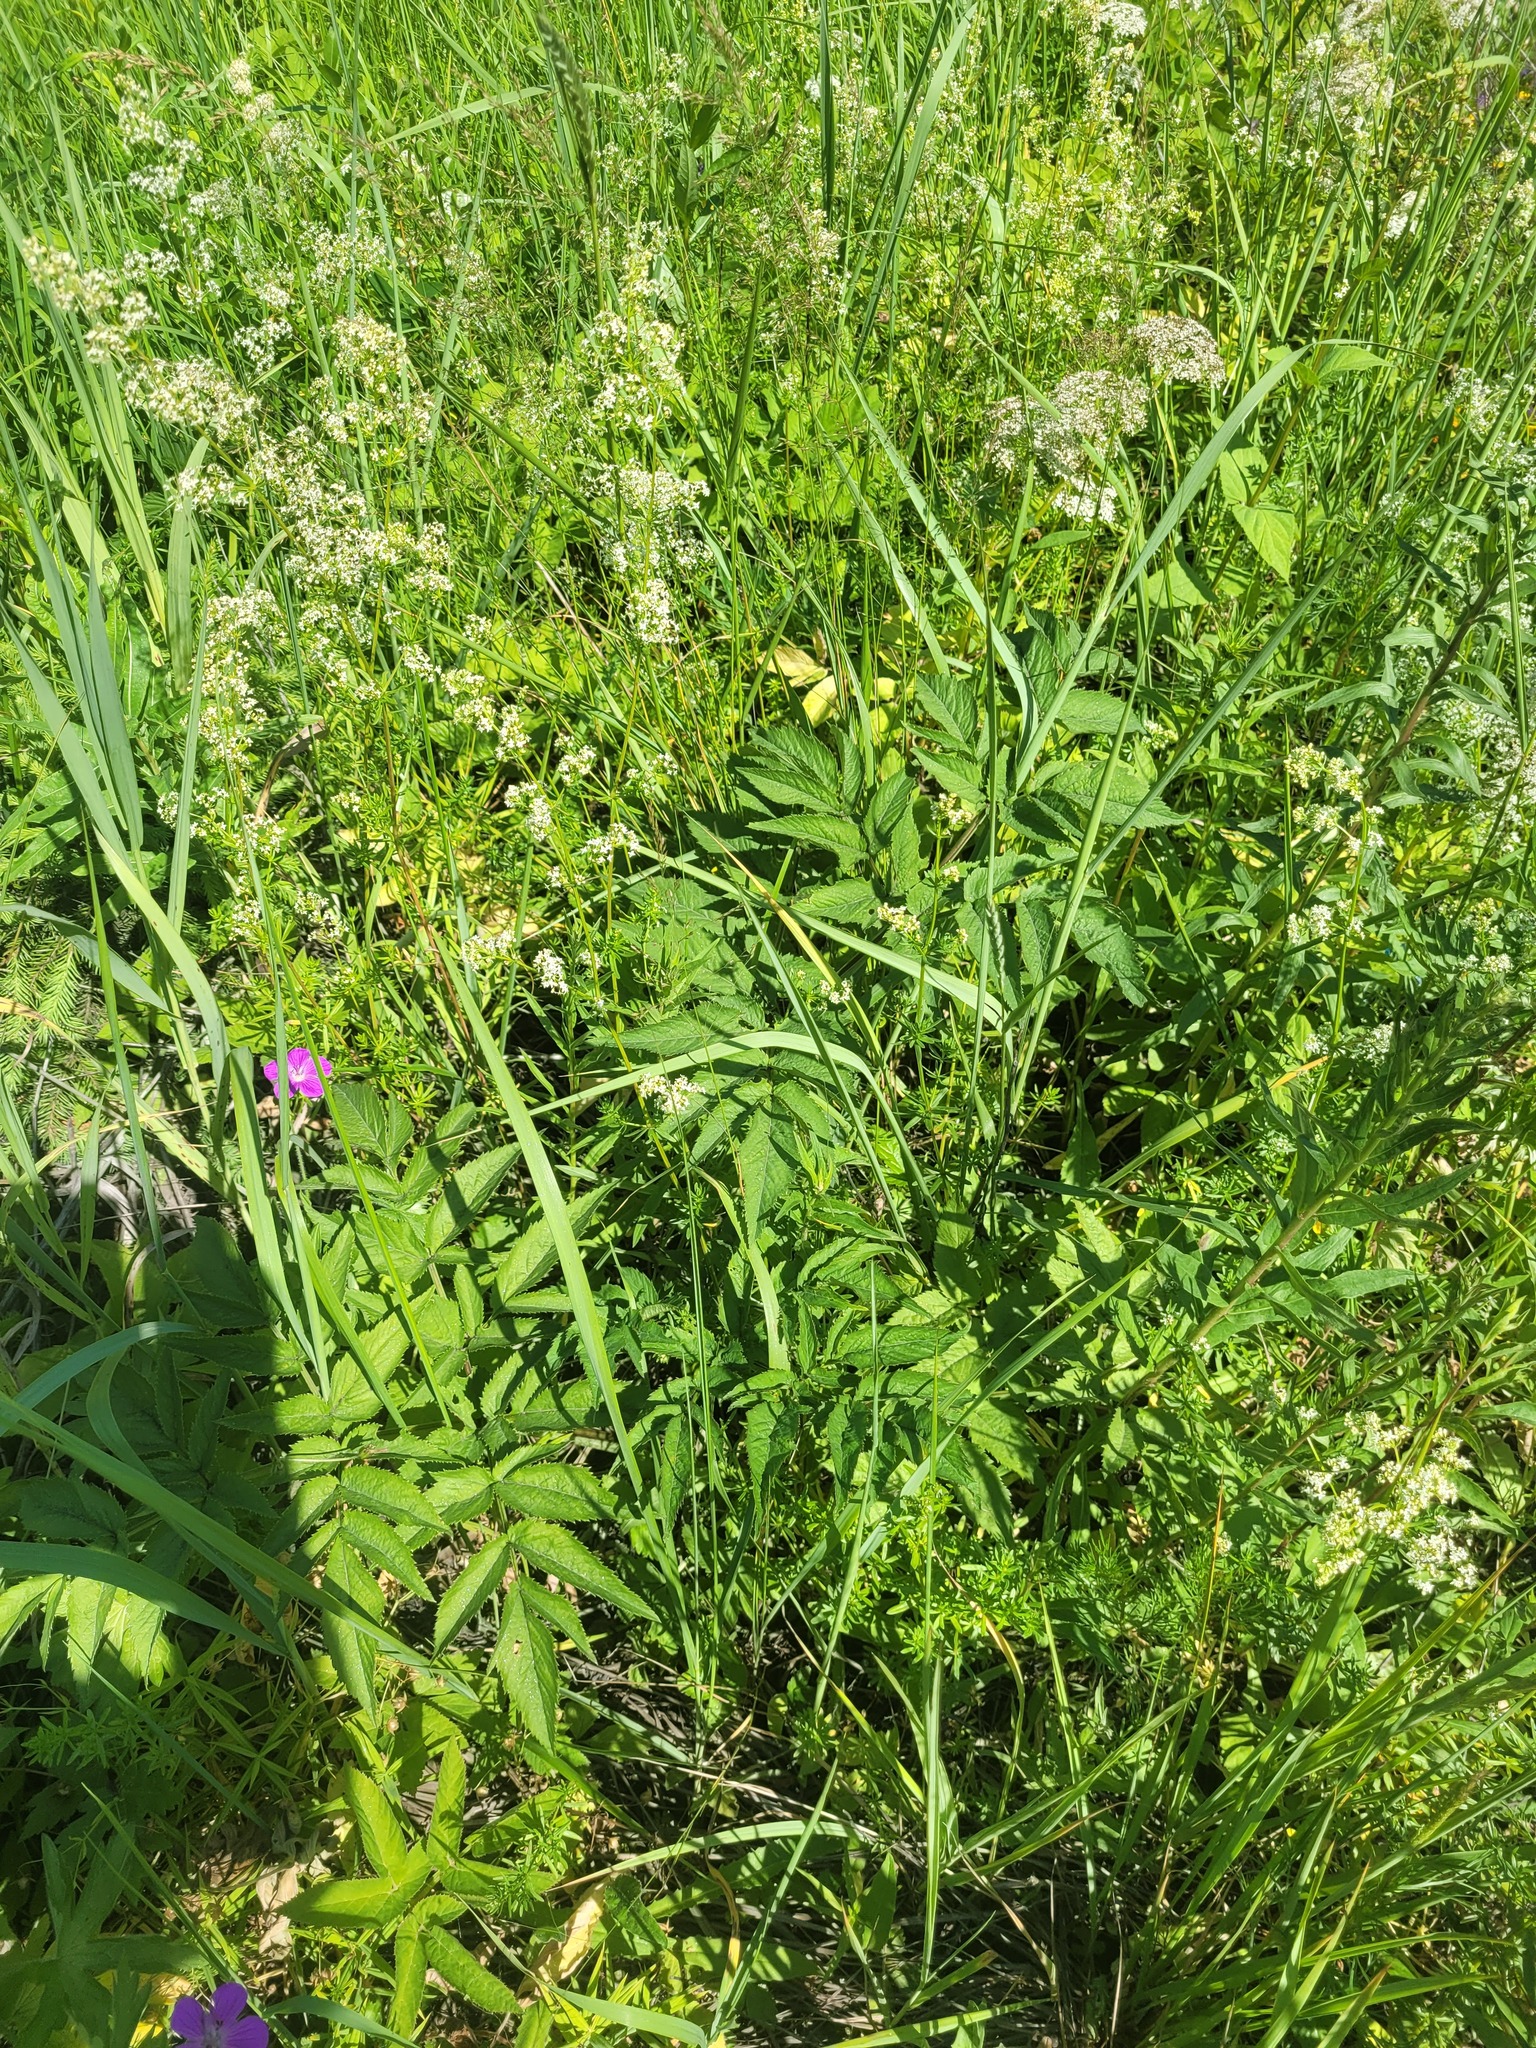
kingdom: Plantae
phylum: Tracheophyta
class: Magnoliopsida
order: Apiales
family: Apiaceae
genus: Angelica
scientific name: Angelica sylvestris
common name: Wild angelica
